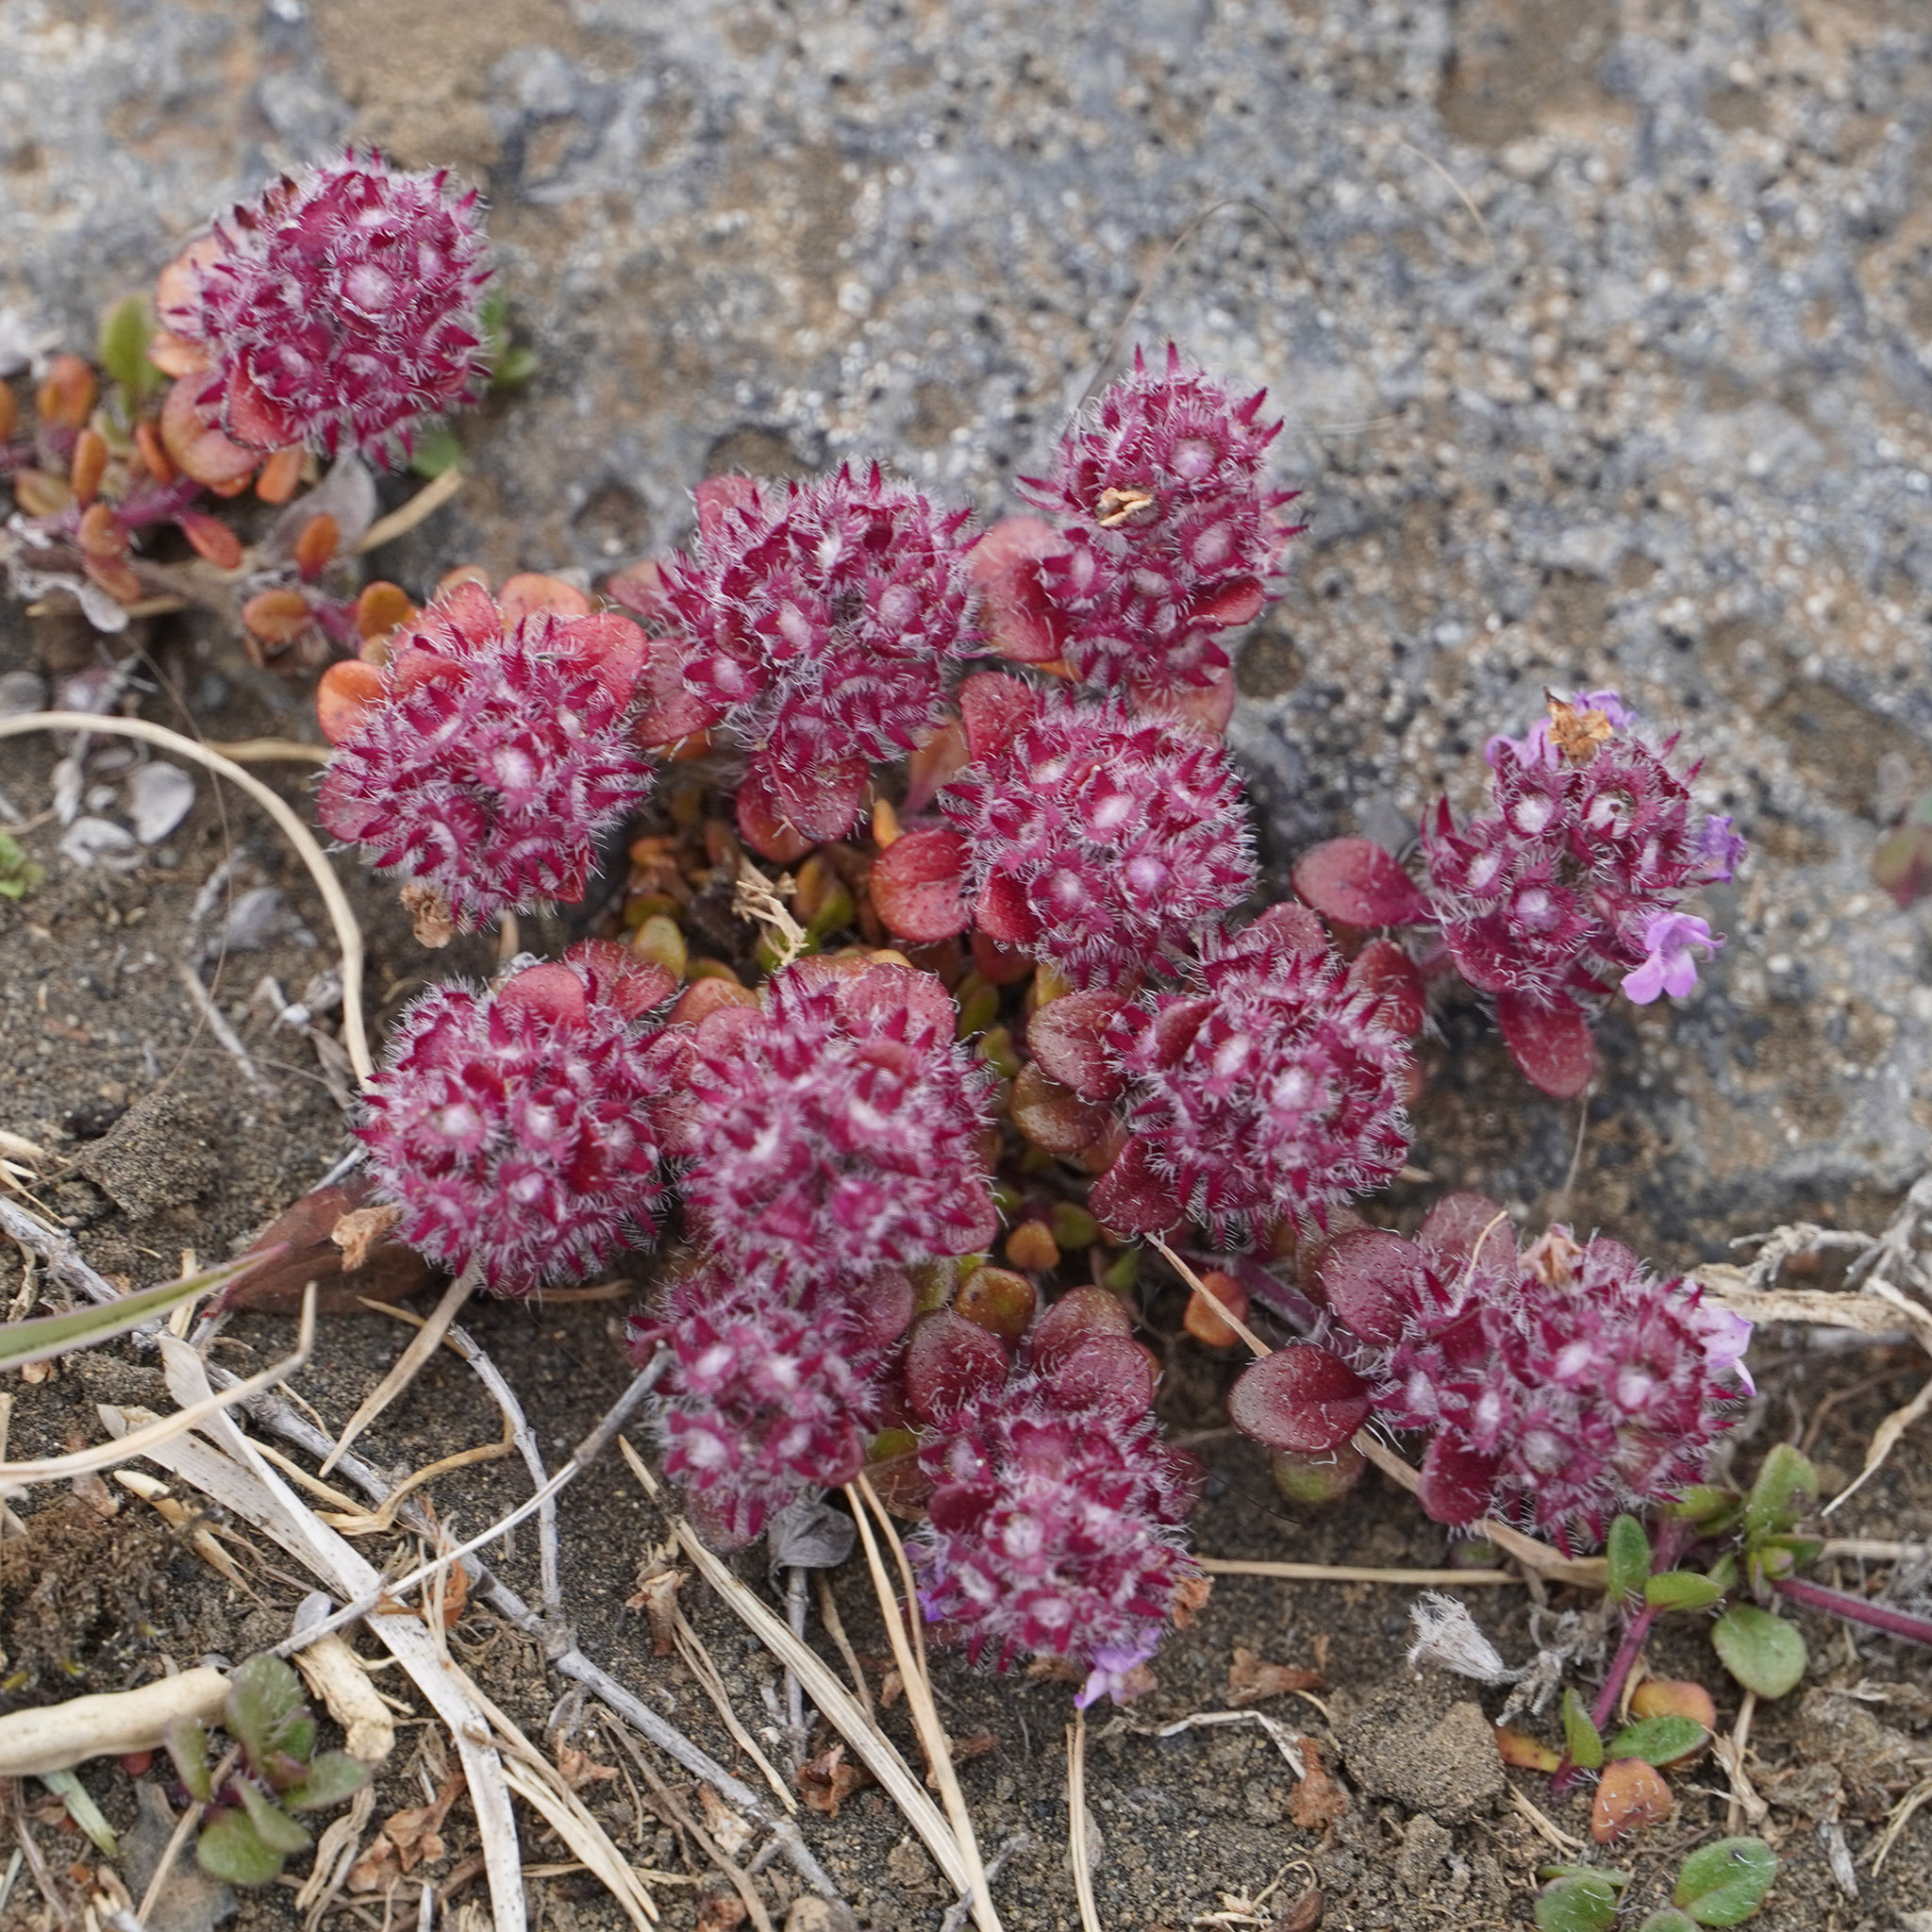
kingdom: Plantae
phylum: Tracheophyta
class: Magnoliopsida
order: Lamiales
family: Lamiaceae
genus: Thymus
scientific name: Thymus praecox
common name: Wild thyme
